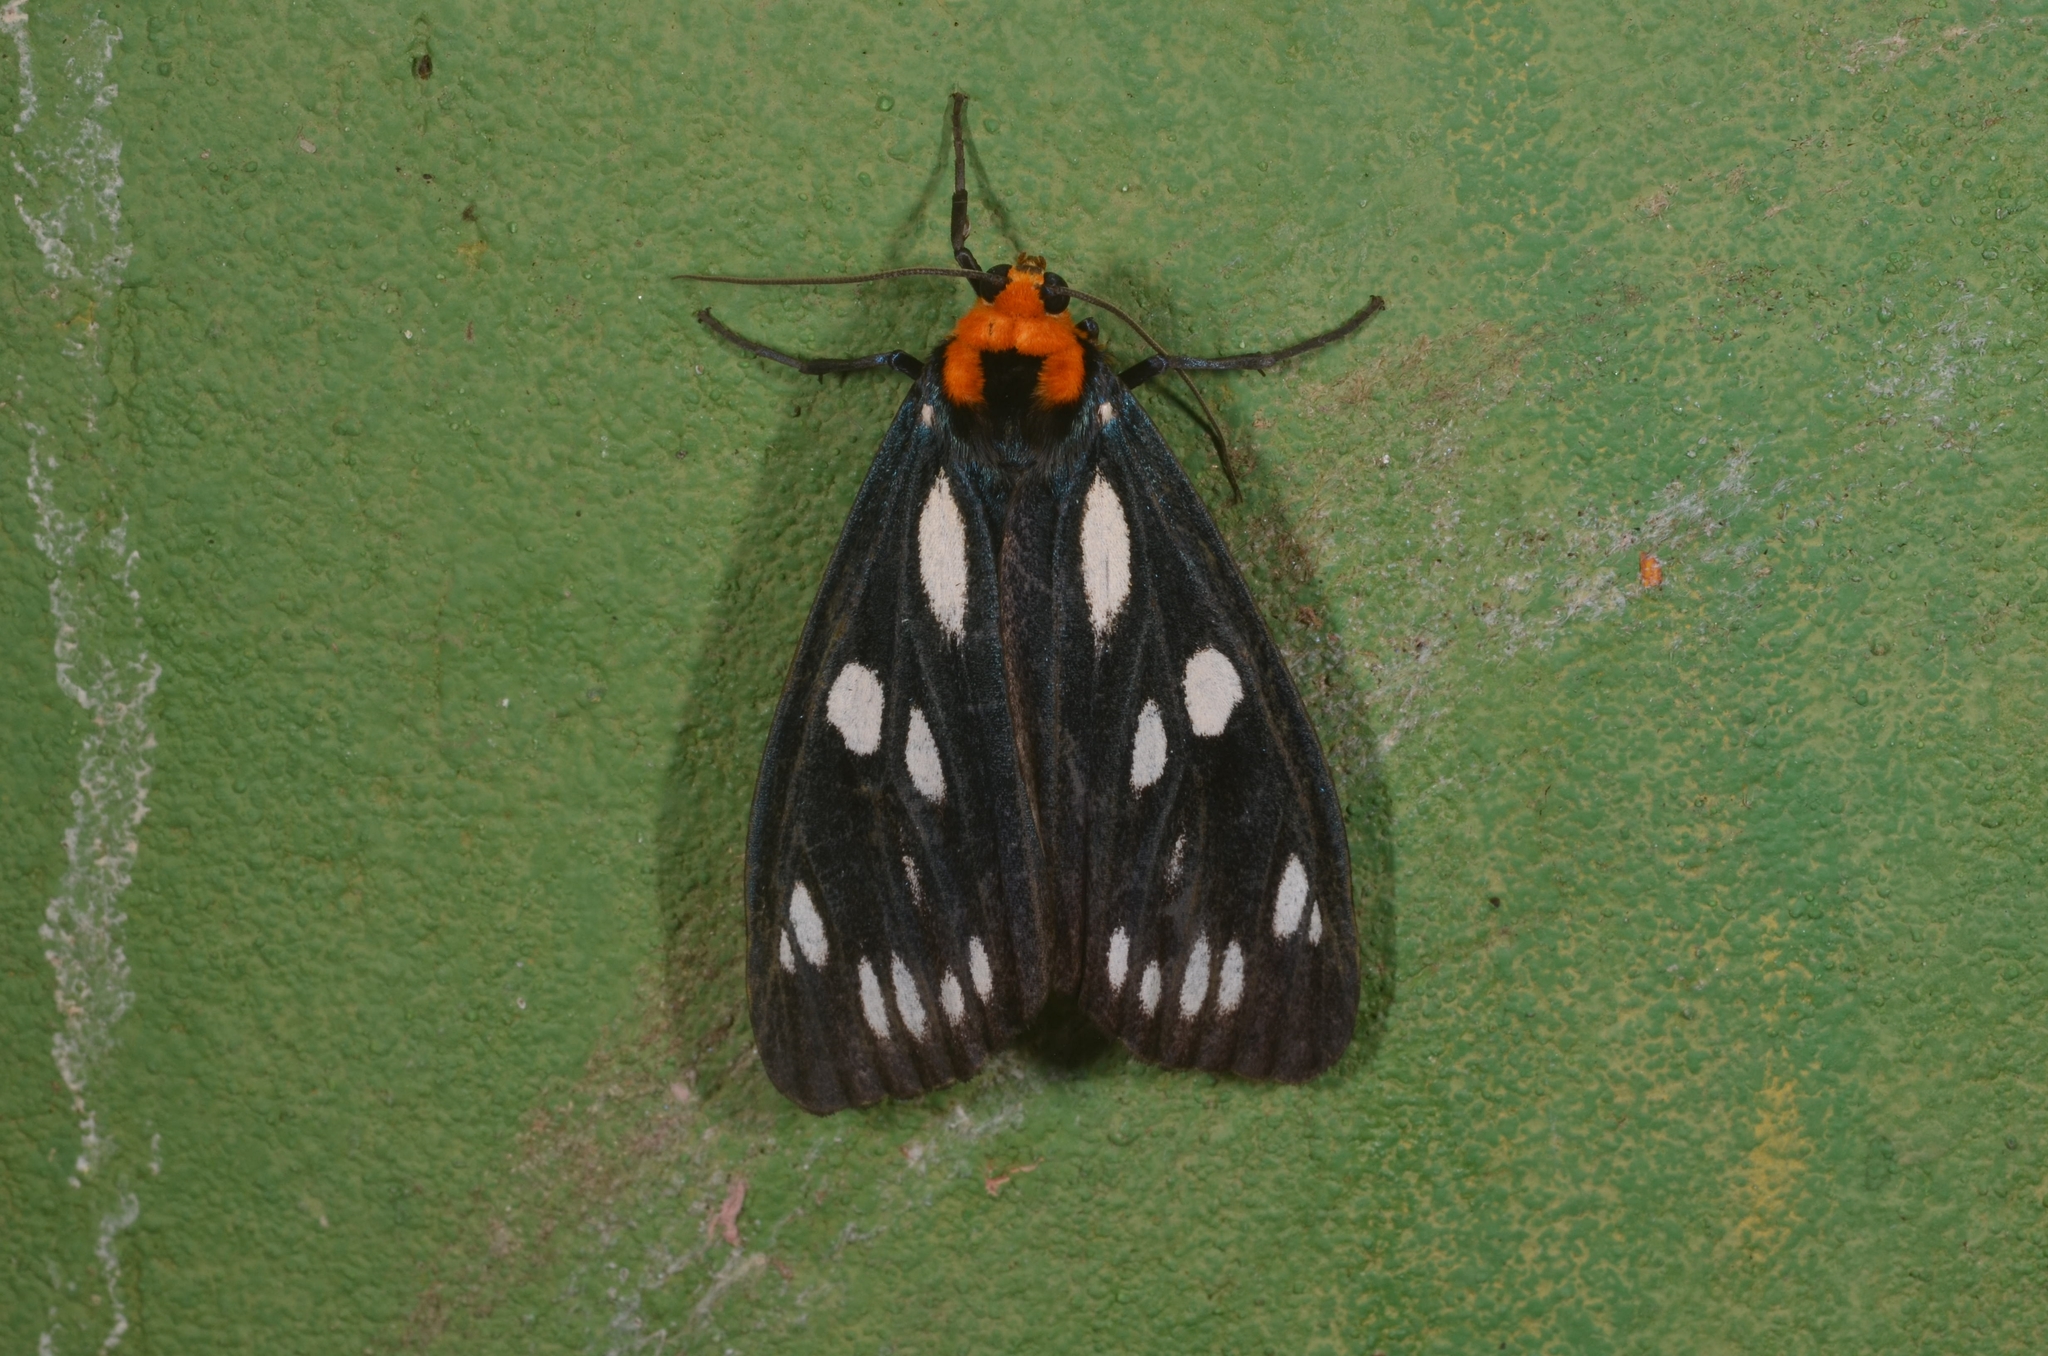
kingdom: Animalia
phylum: Arthropoda
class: Insecta
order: Lepidoptera
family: Erebidae
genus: Macrobrochis
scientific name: Macrobrochis gigas
